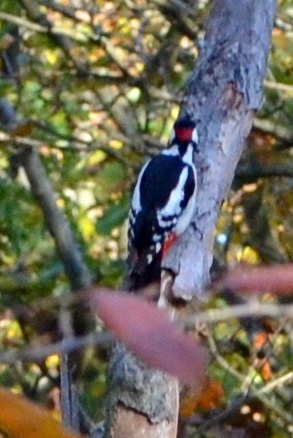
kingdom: Animalia
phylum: Chordata
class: Aves
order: Piciformes
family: Picidae
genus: Dendrocopos
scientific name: Dendrocopos major
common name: Great spotted woodpecker
